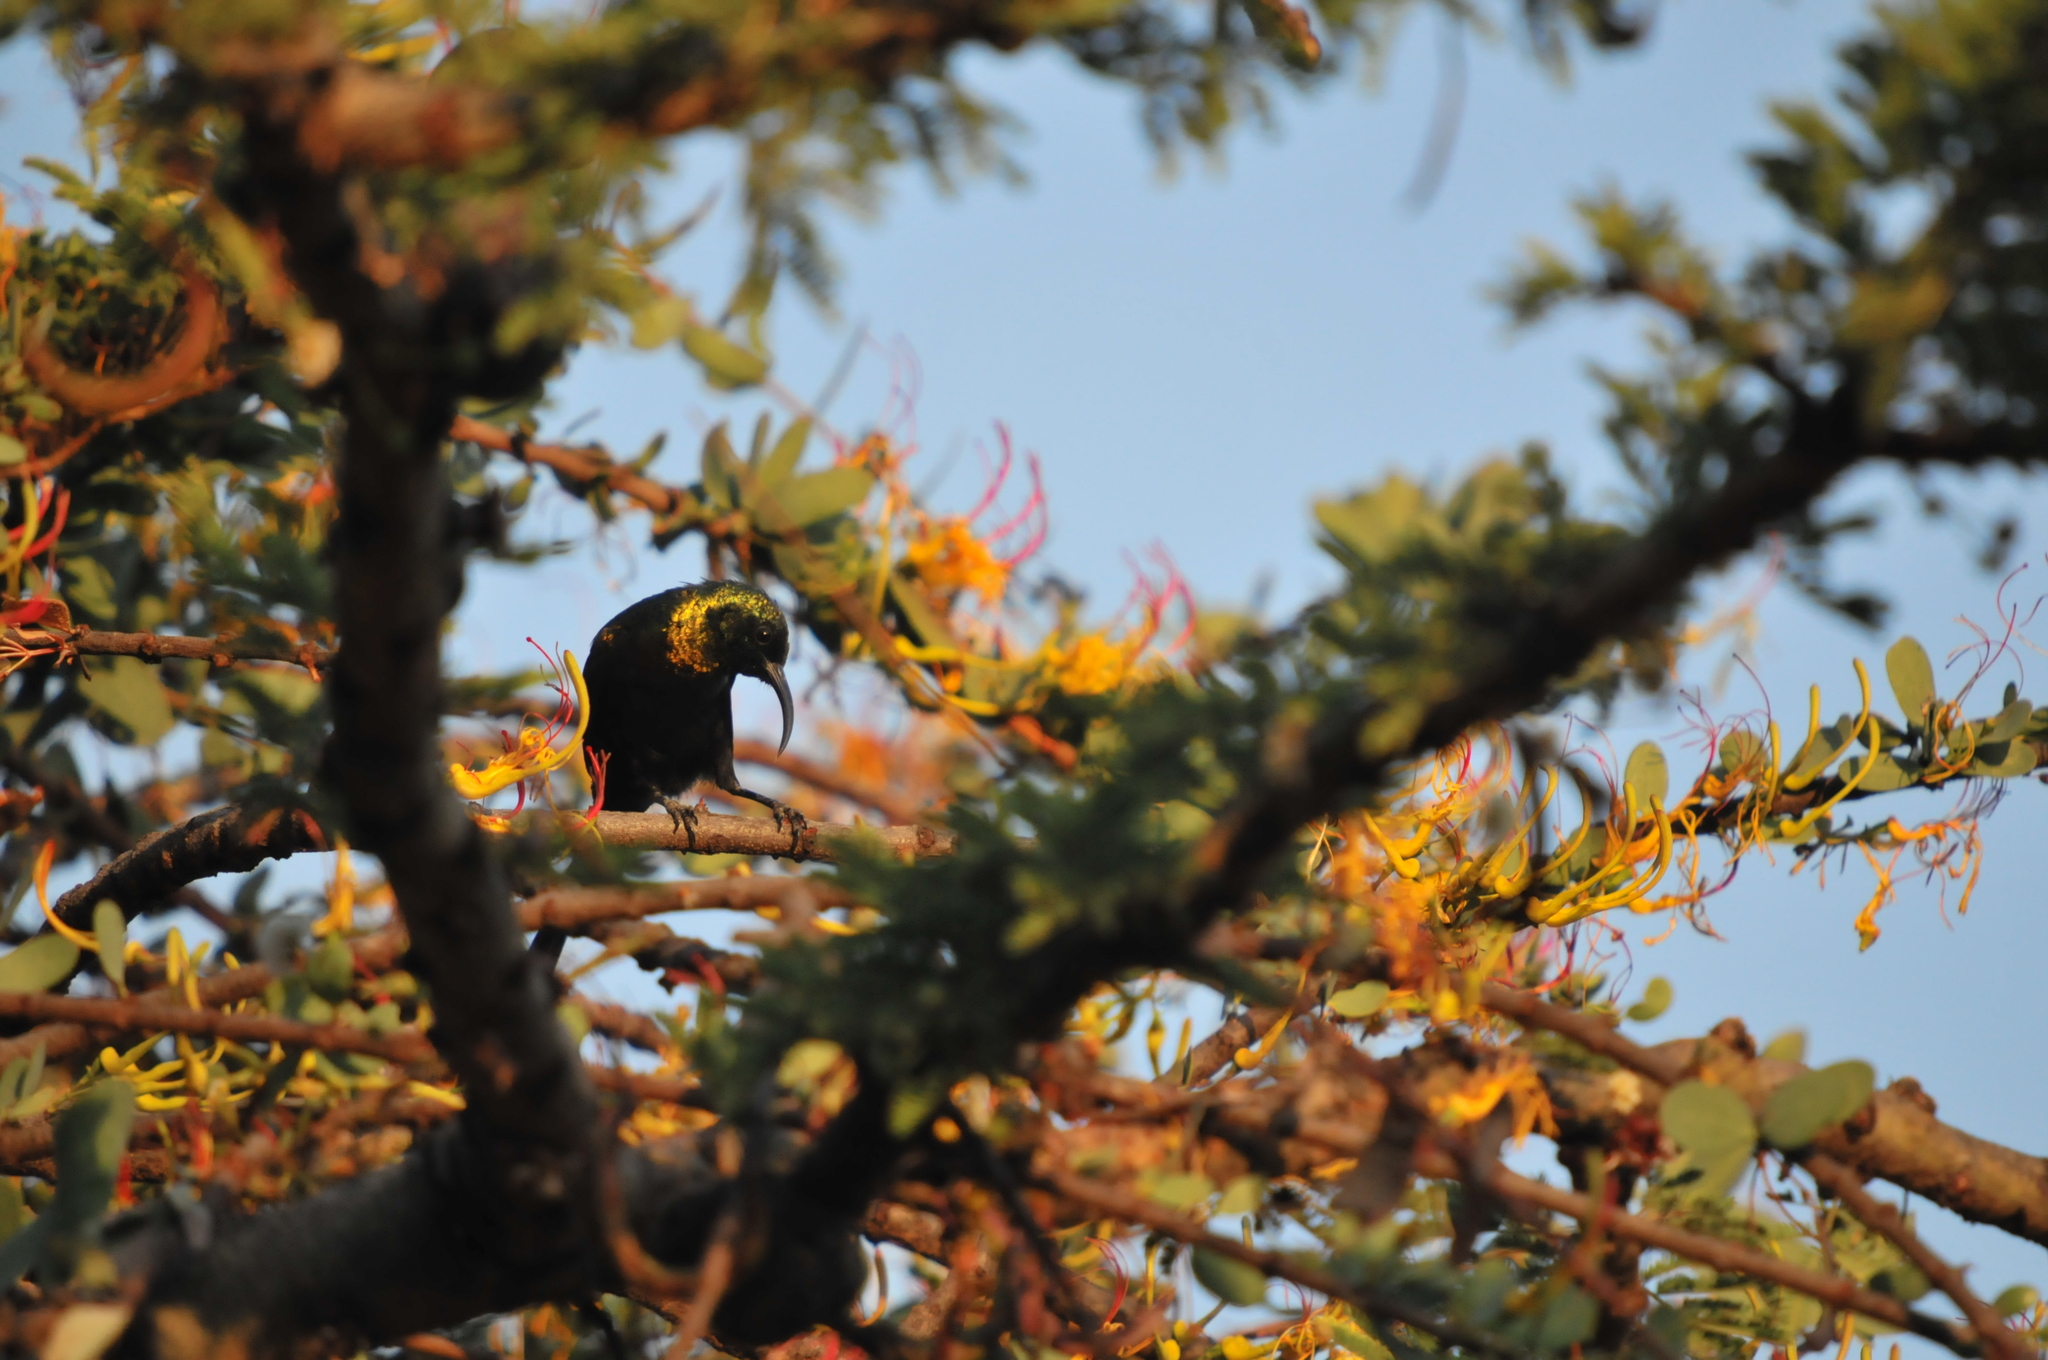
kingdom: Animalia
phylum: Chordata
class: Aves
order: Passeriformes
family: Nectariniidae
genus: Nectarinia
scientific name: Nectarinia kilimensis
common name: Bronzy sunbird
